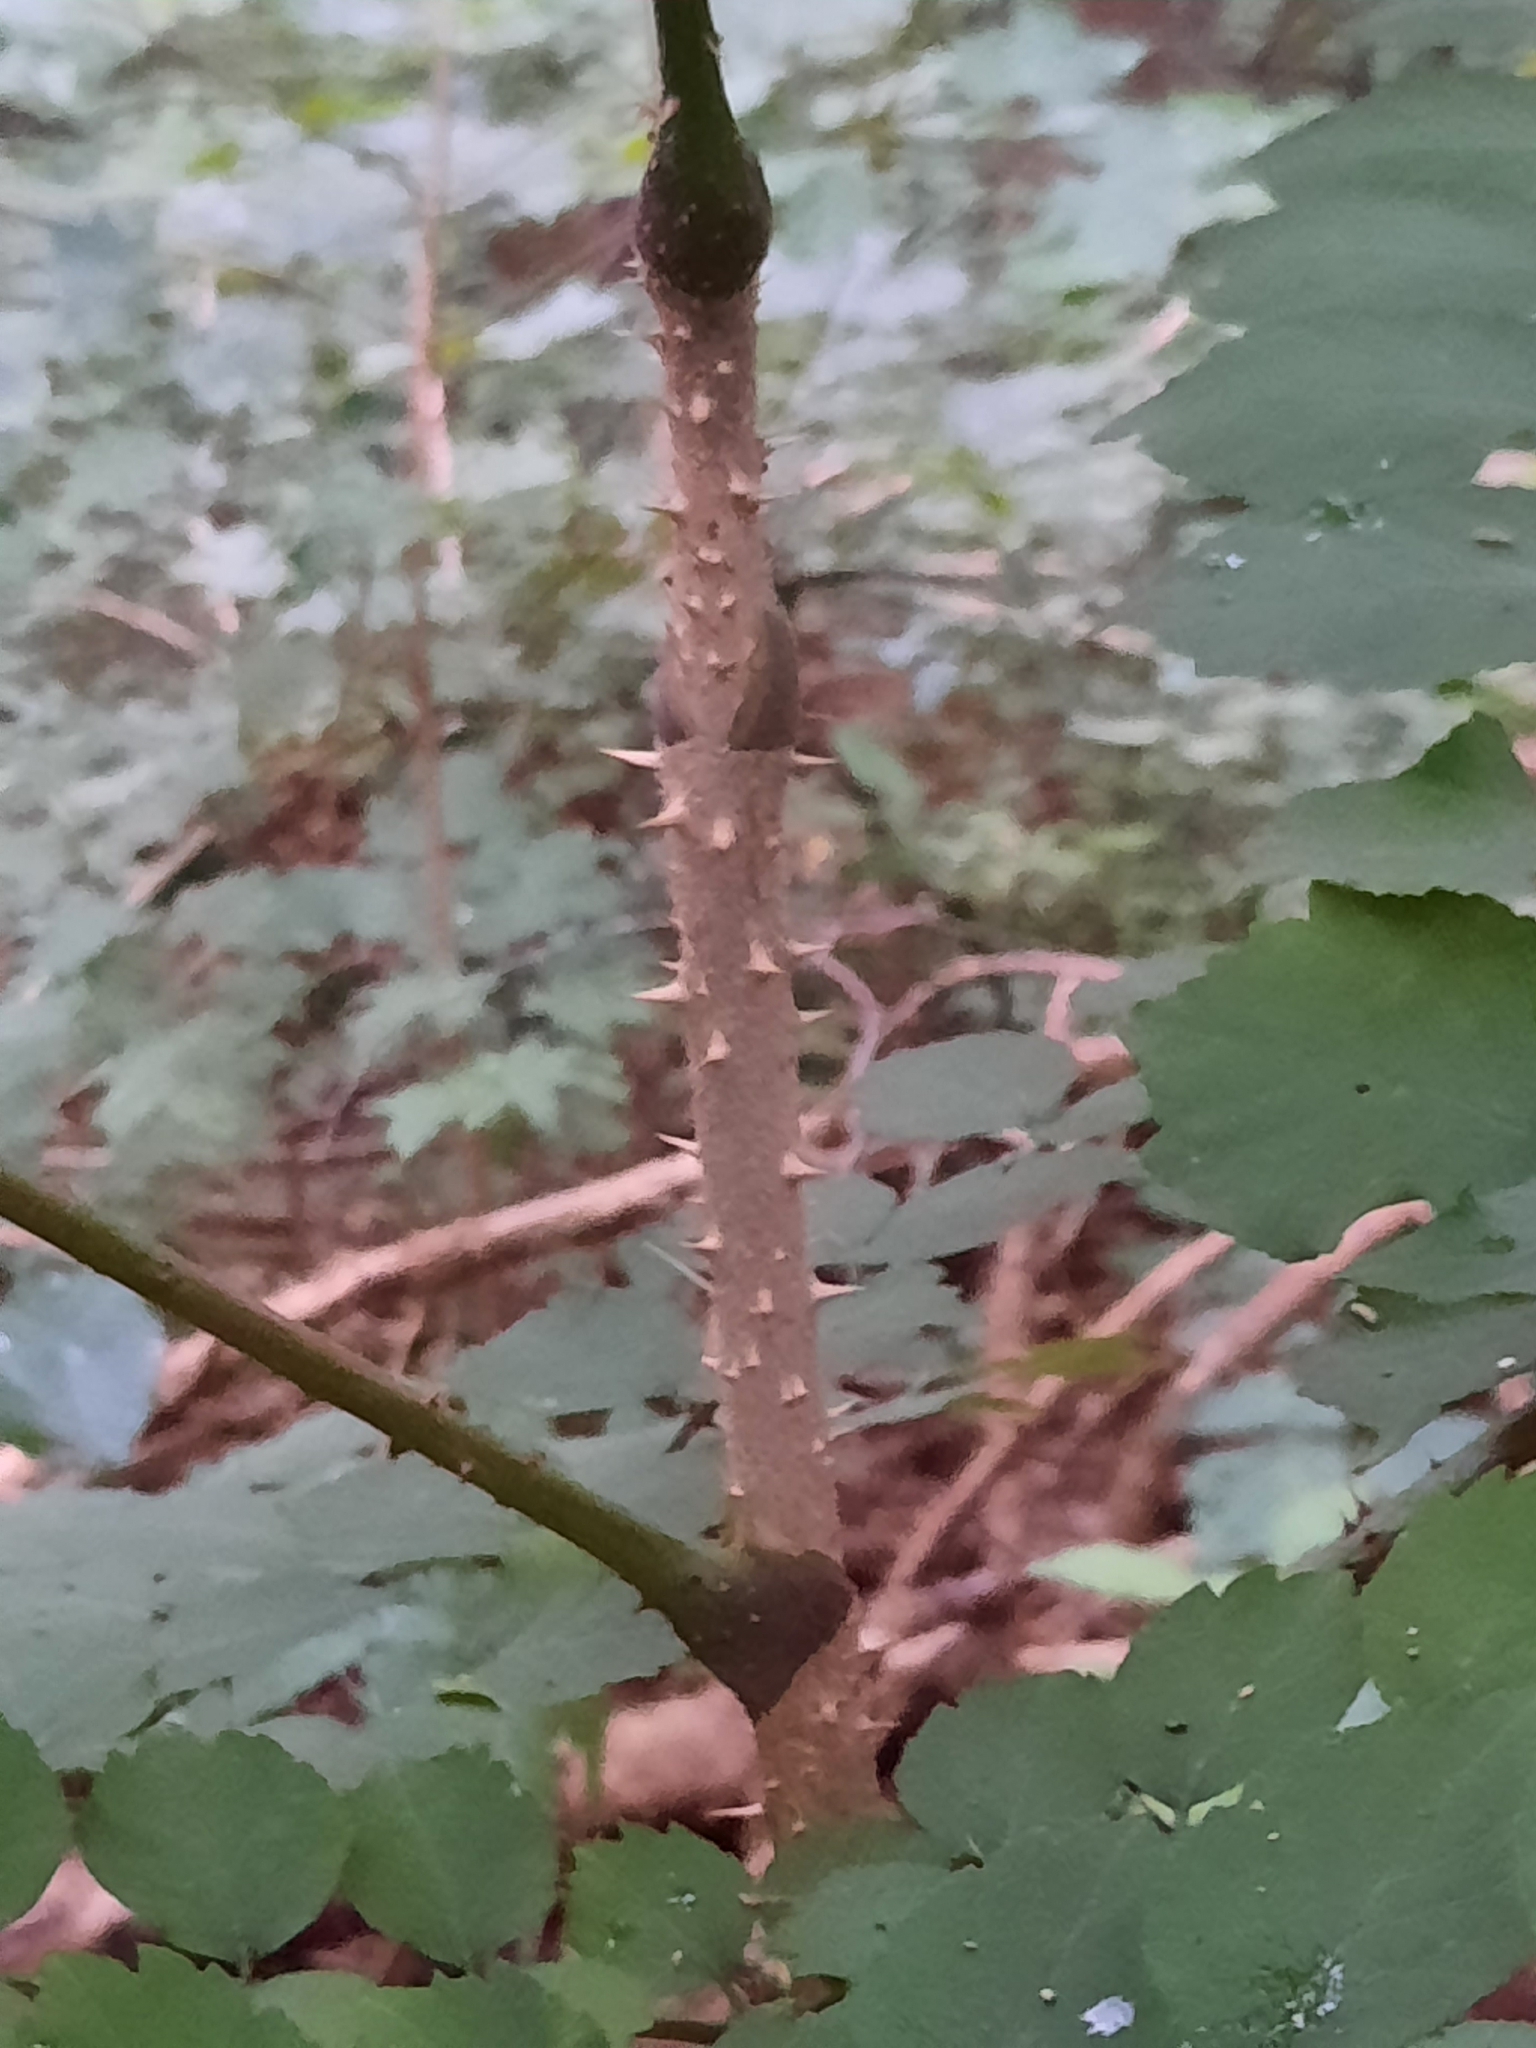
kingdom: Plantae
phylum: Tracheophyta
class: Magnoliopsida
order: Apiales
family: Araliaceae
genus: Aralia
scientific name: Aralia elata
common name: Japanese angelica-tree
